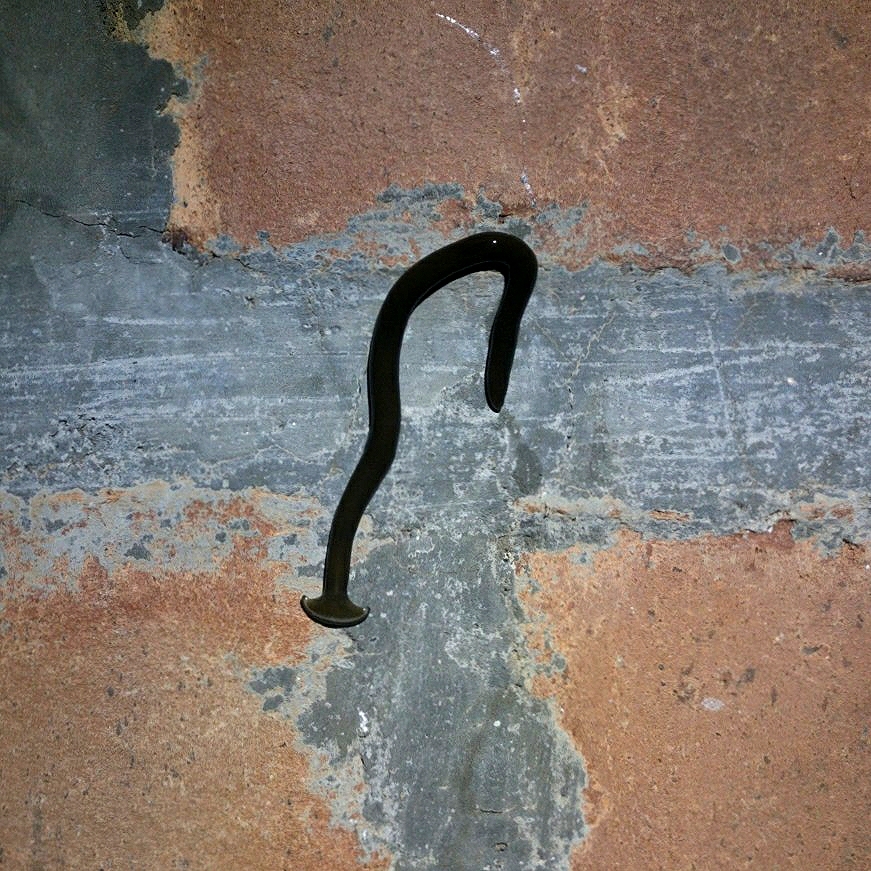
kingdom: Animalia
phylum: Platyhelminthes
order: Tricladida
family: Geoplanidae
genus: Bipalium
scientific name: Bipalium univittatum
